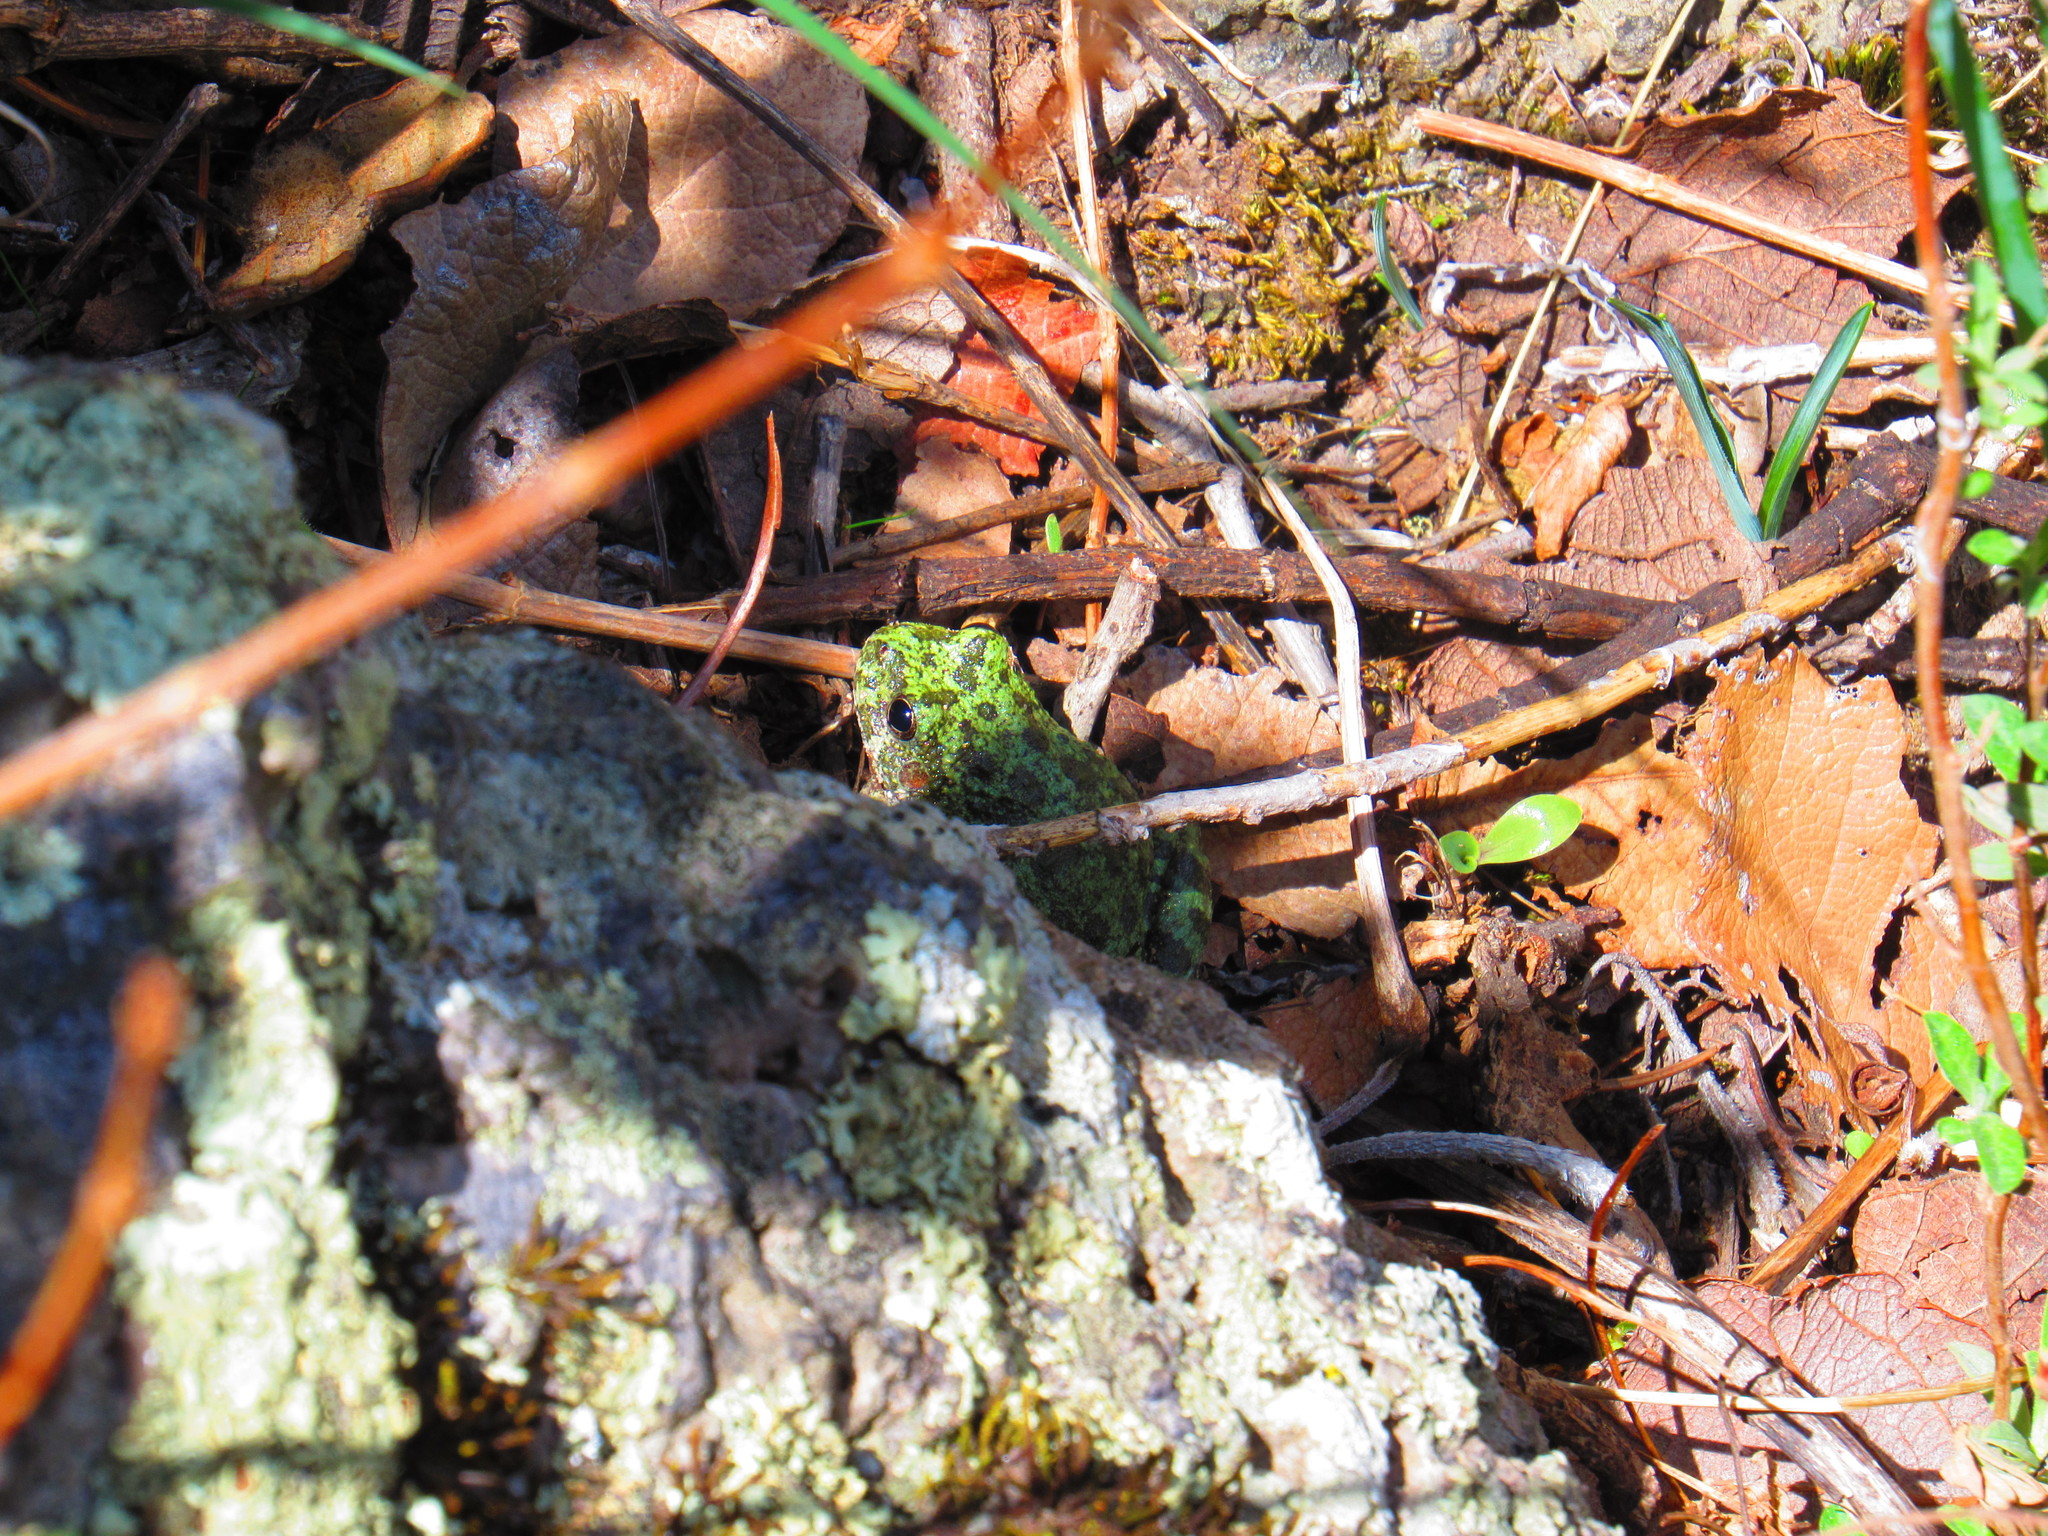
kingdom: Animalia
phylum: Chordata
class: Amphibia
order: Anura
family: Hylidae
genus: Dryophytes
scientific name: Dryophytes arenicolor
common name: Canyon treefrog
